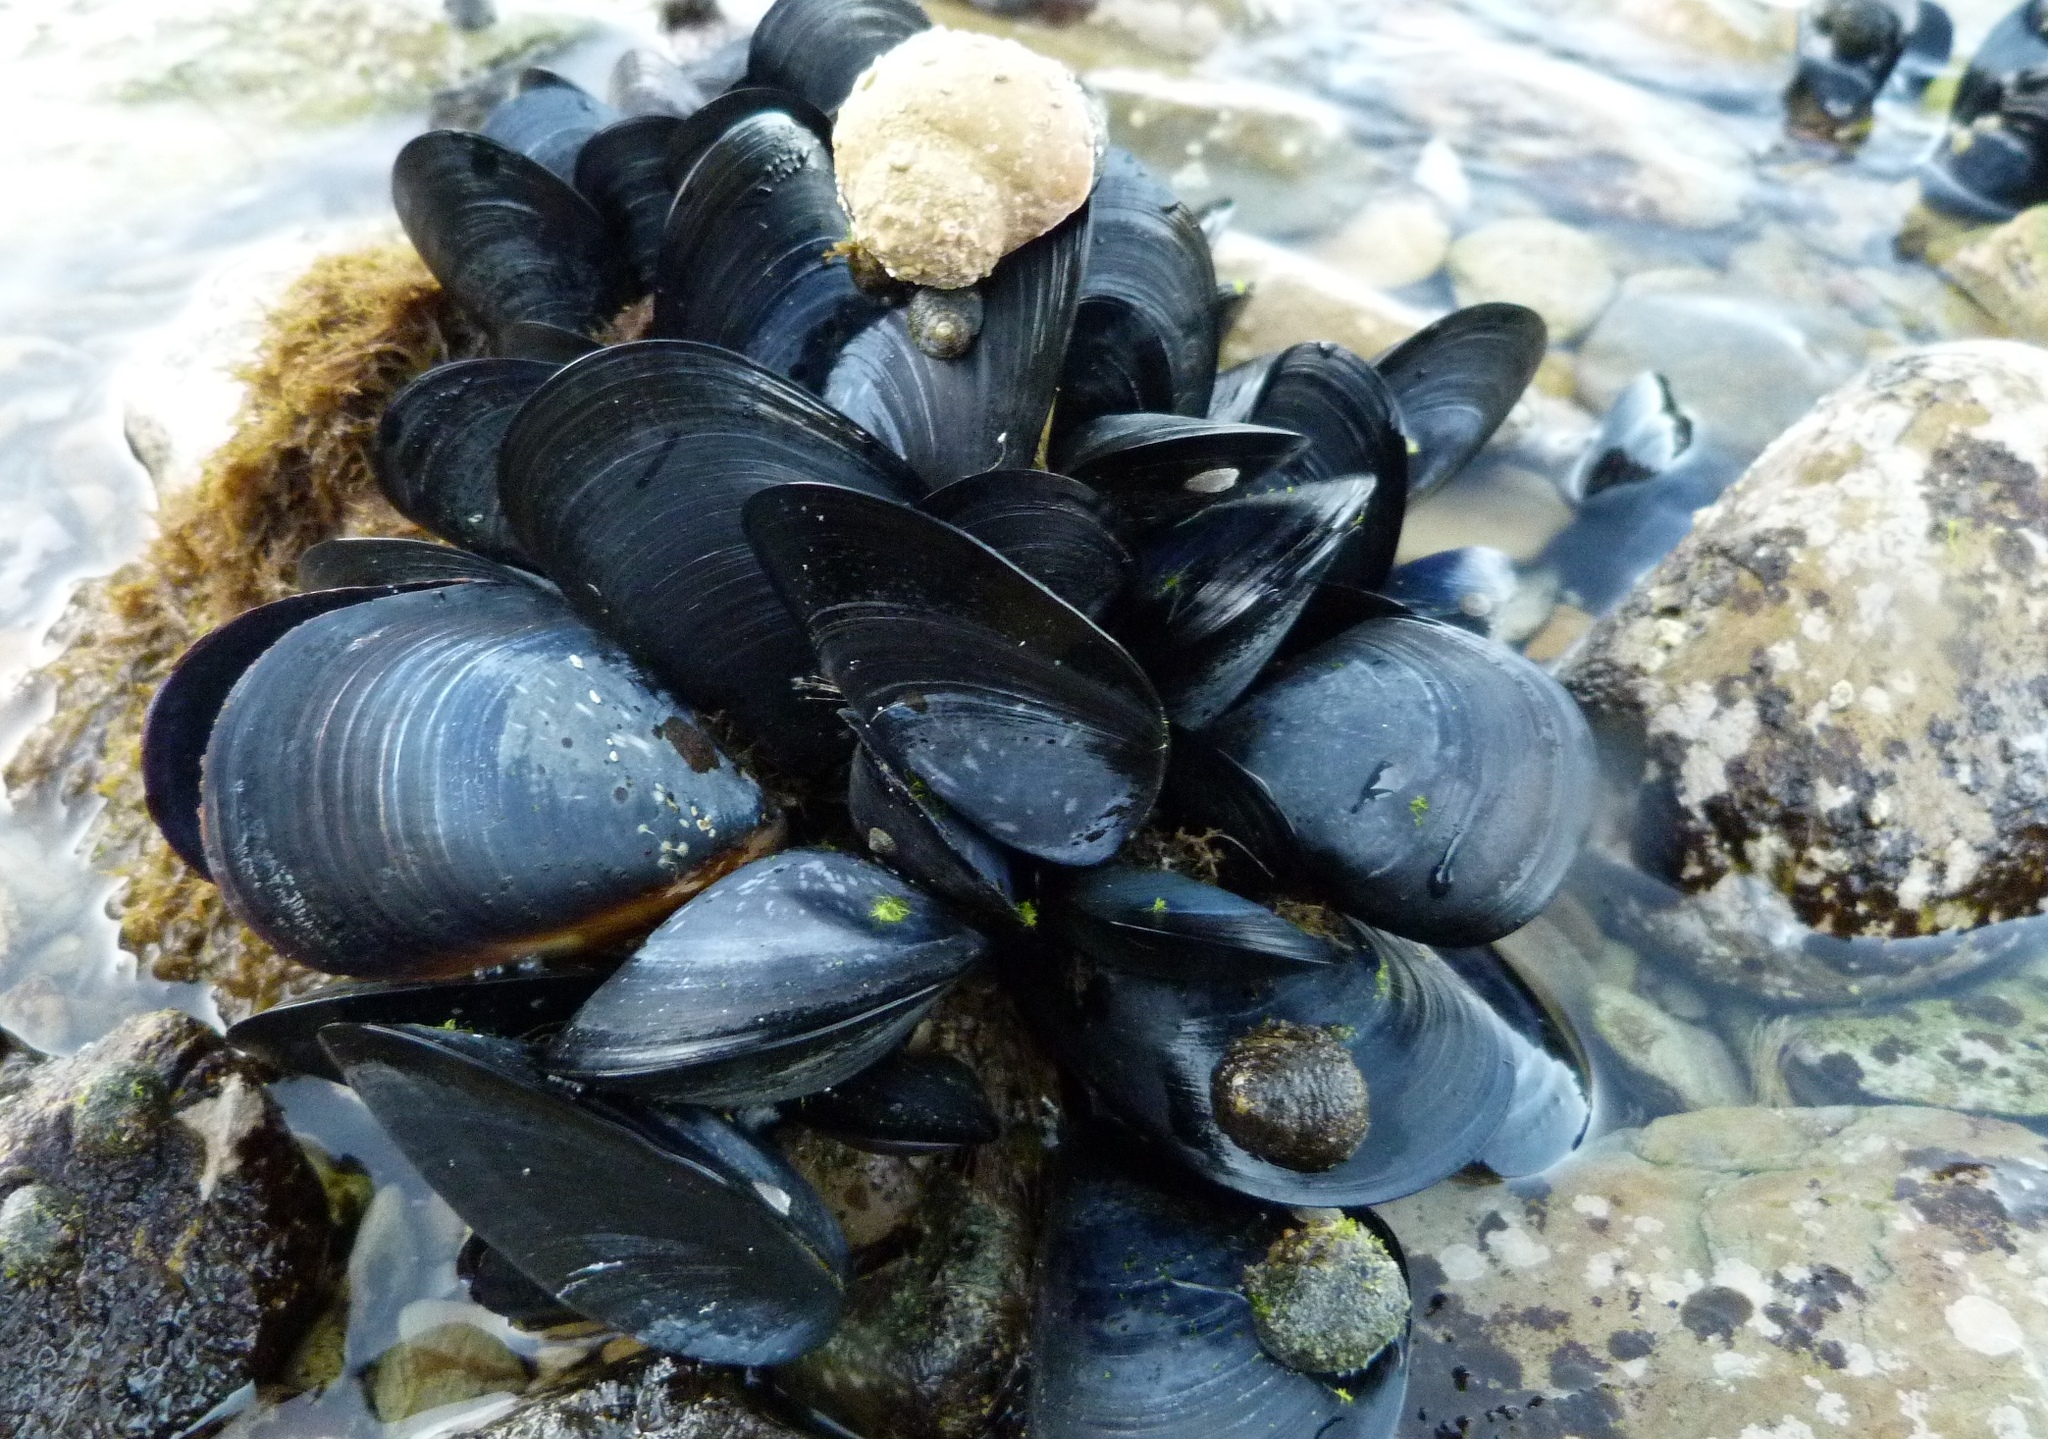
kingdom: Animalia
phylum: Mollusca
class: Bivalvia
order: Mytilida
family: Mytilidae
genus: Mytilus
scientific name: Mytilus planulatus
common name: Australian mussel
